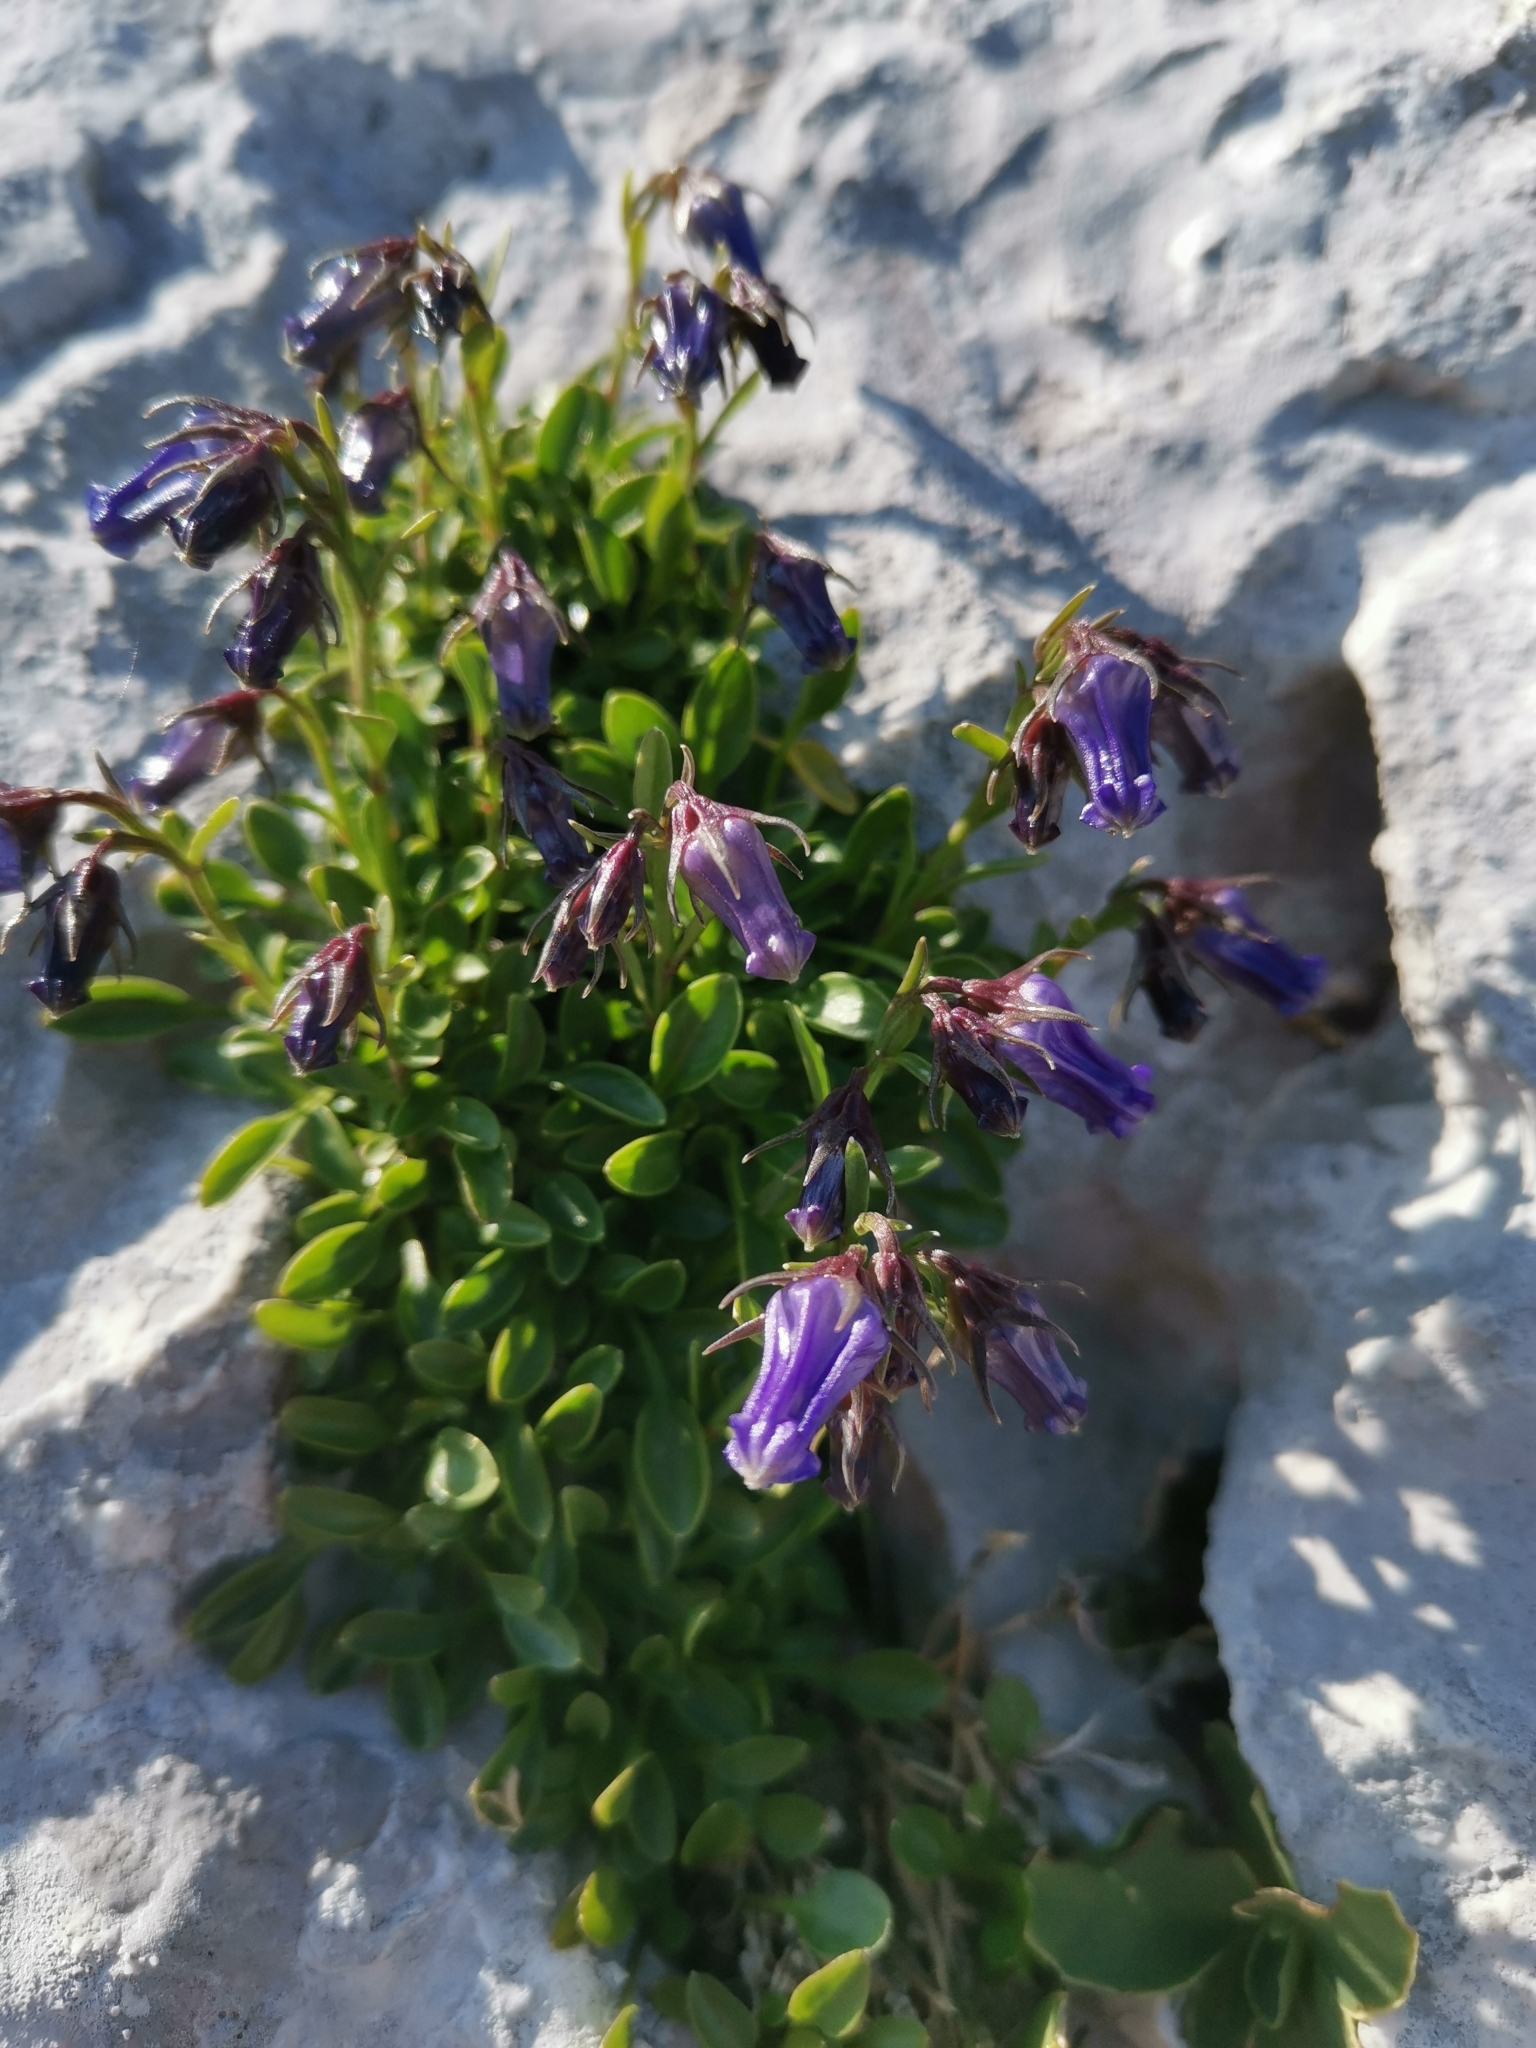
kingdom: Plantae
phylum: Tracheophyta
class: Magnoliopsida
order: Asterales
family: Campanulaceae
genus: Favratia
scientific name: Favratia zoysii
